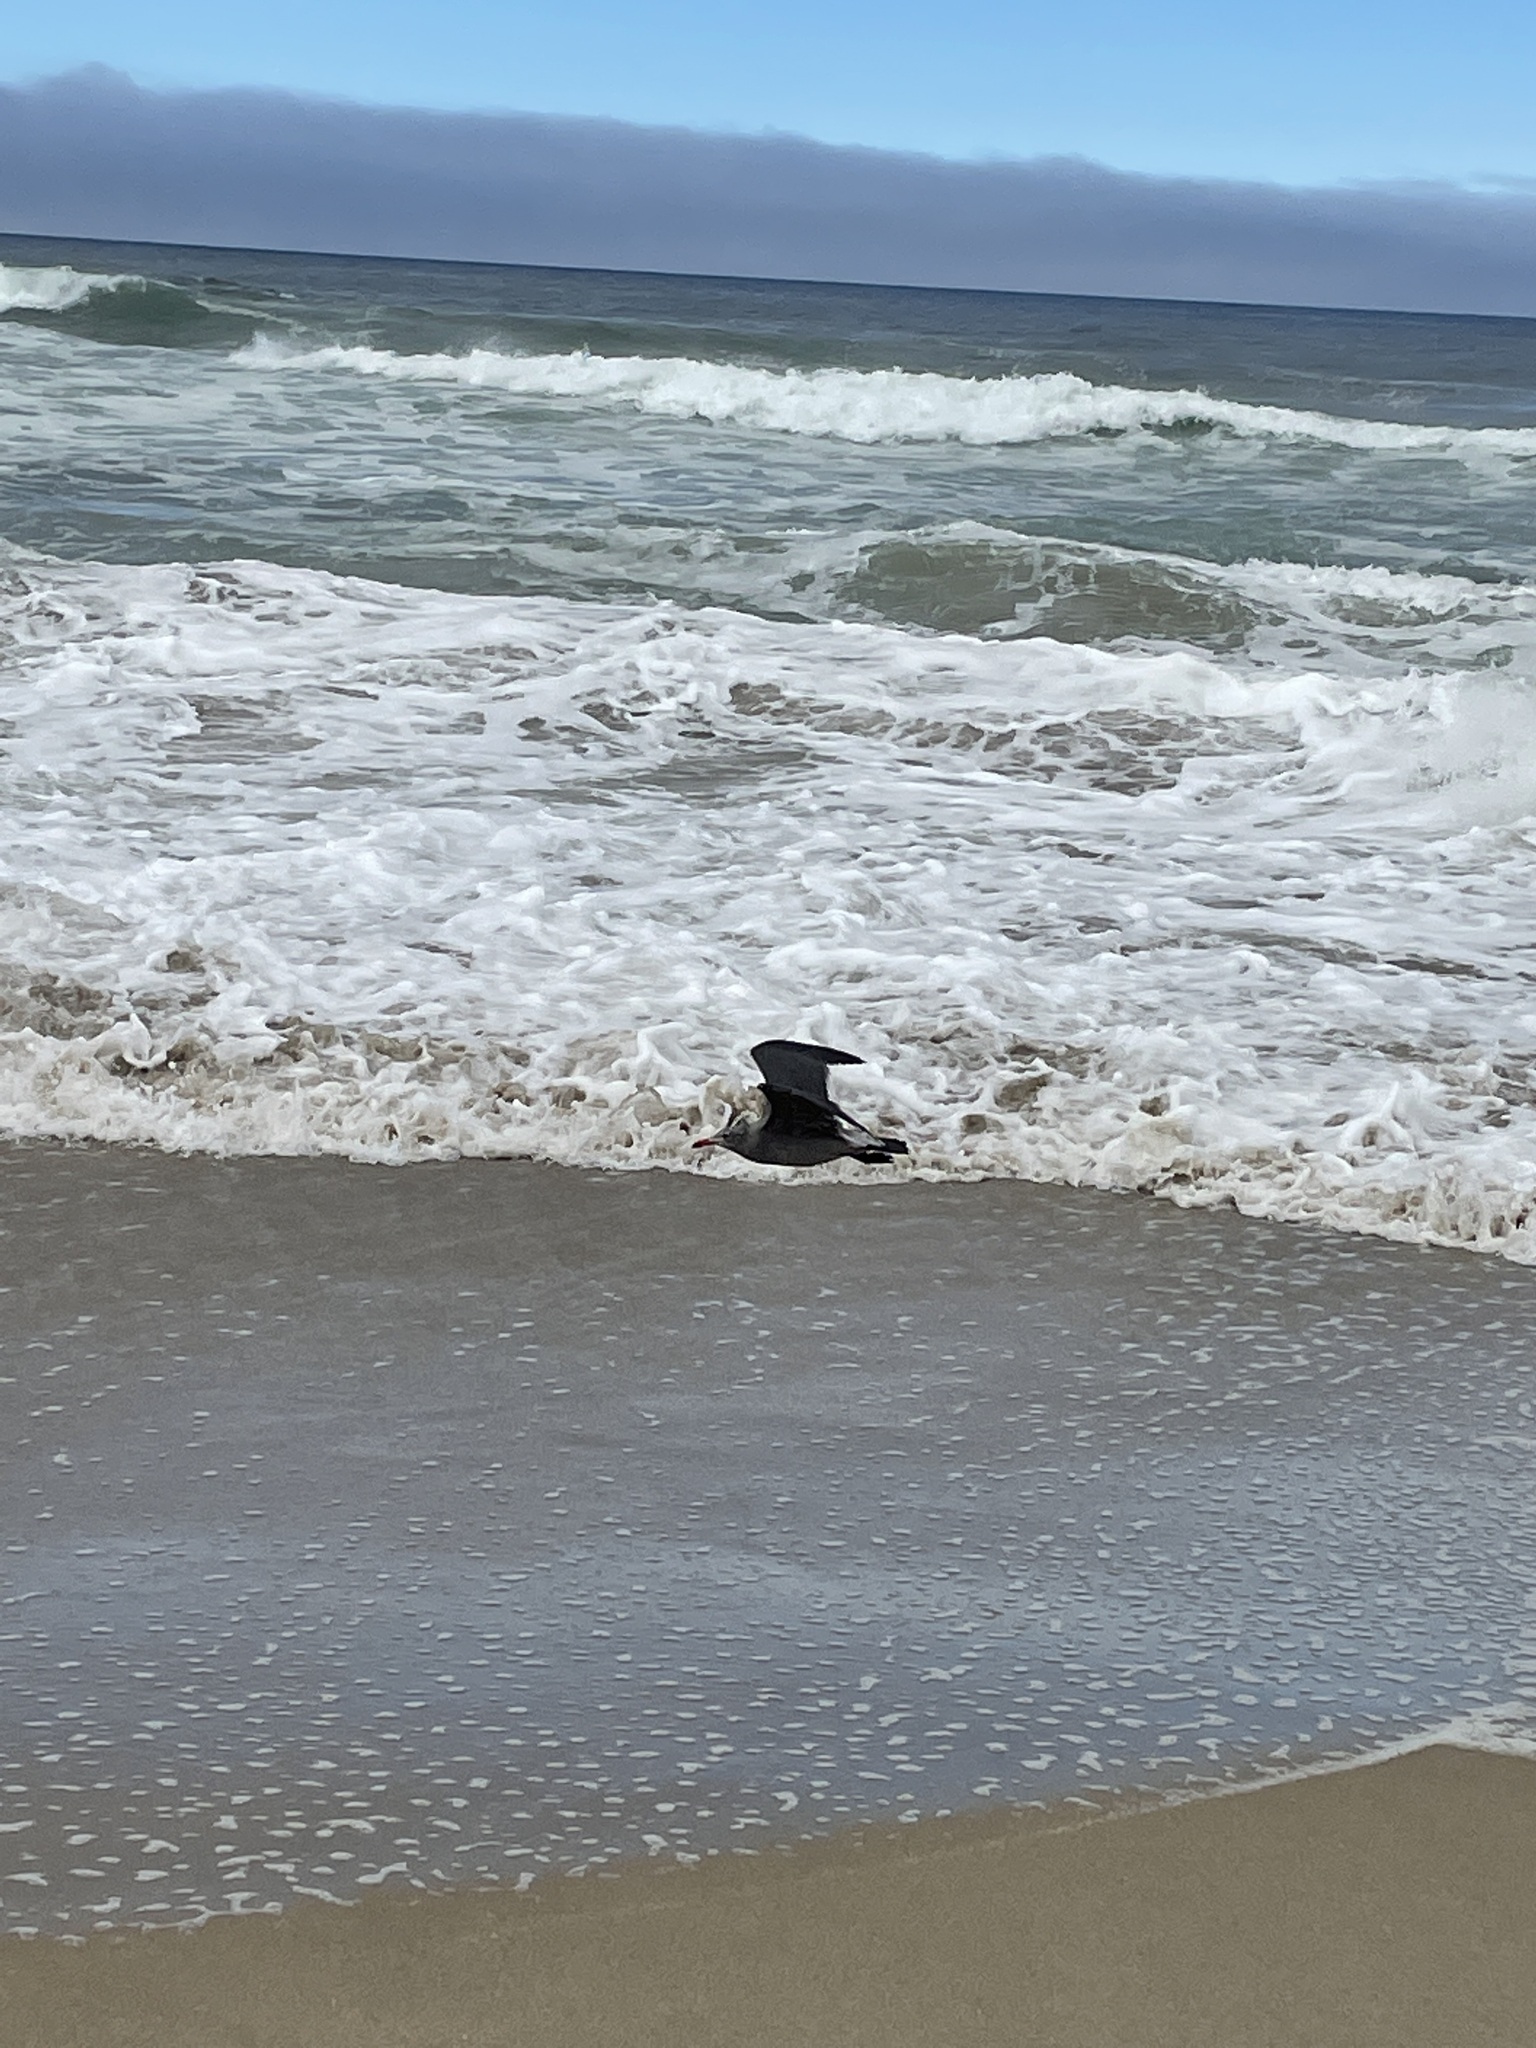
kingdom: Animalia
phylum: Chordata
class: Aves
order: Charadriiformes
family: Laridae
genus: Larus
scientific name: Larus heermanni
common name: Heermann's gull
